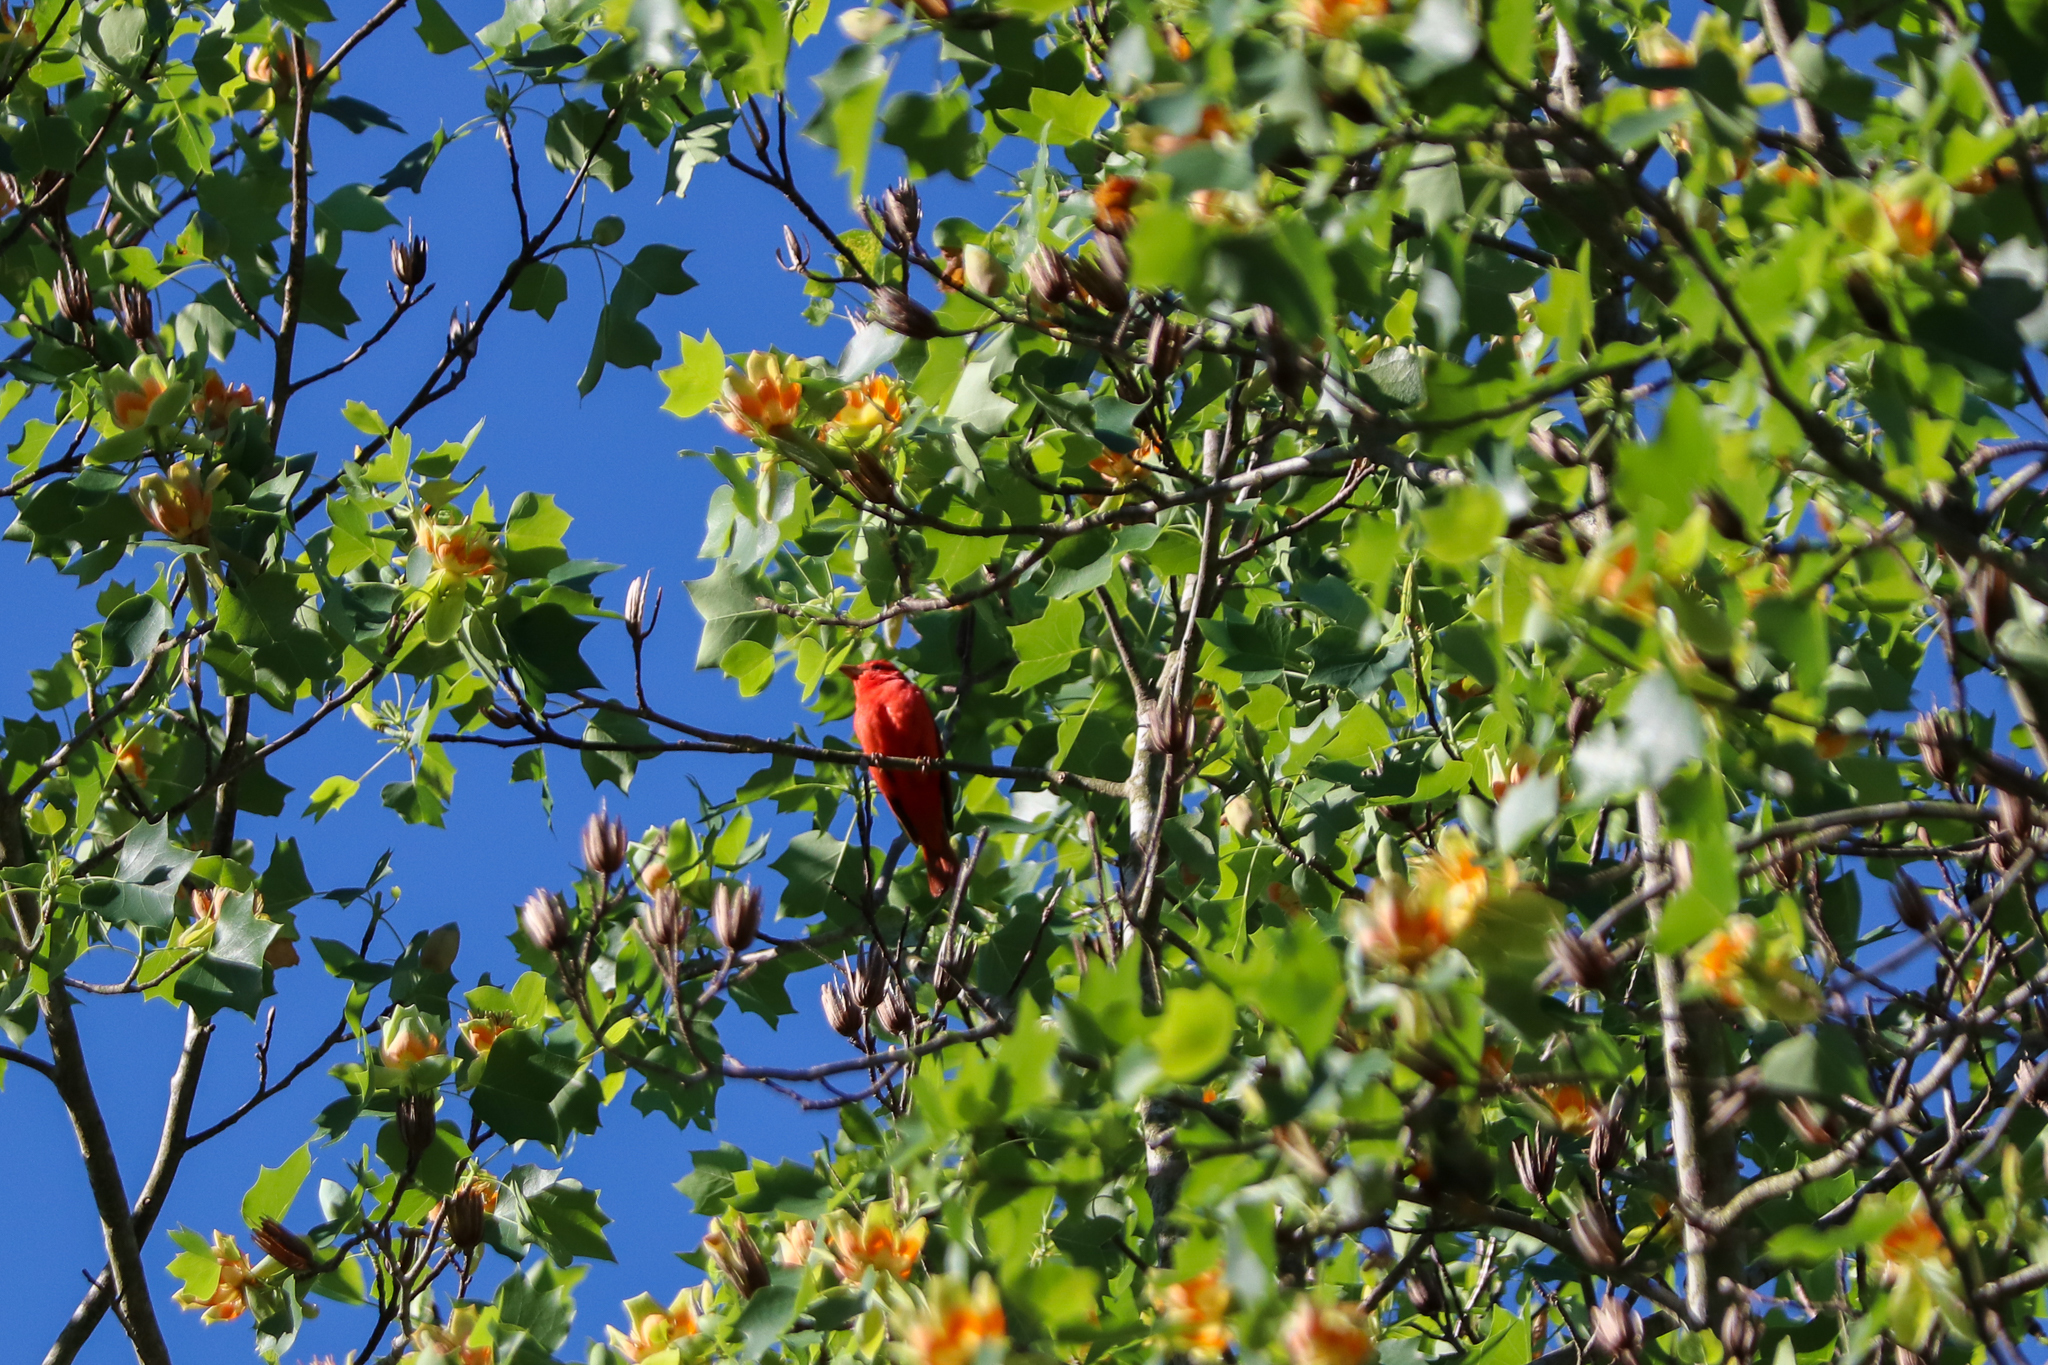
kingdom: Animalia
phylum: Chordata
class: Aves
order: Passeriformes
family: Cardinalidae
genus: Piranga
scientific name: Piranga rubra
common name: Summer tanager
